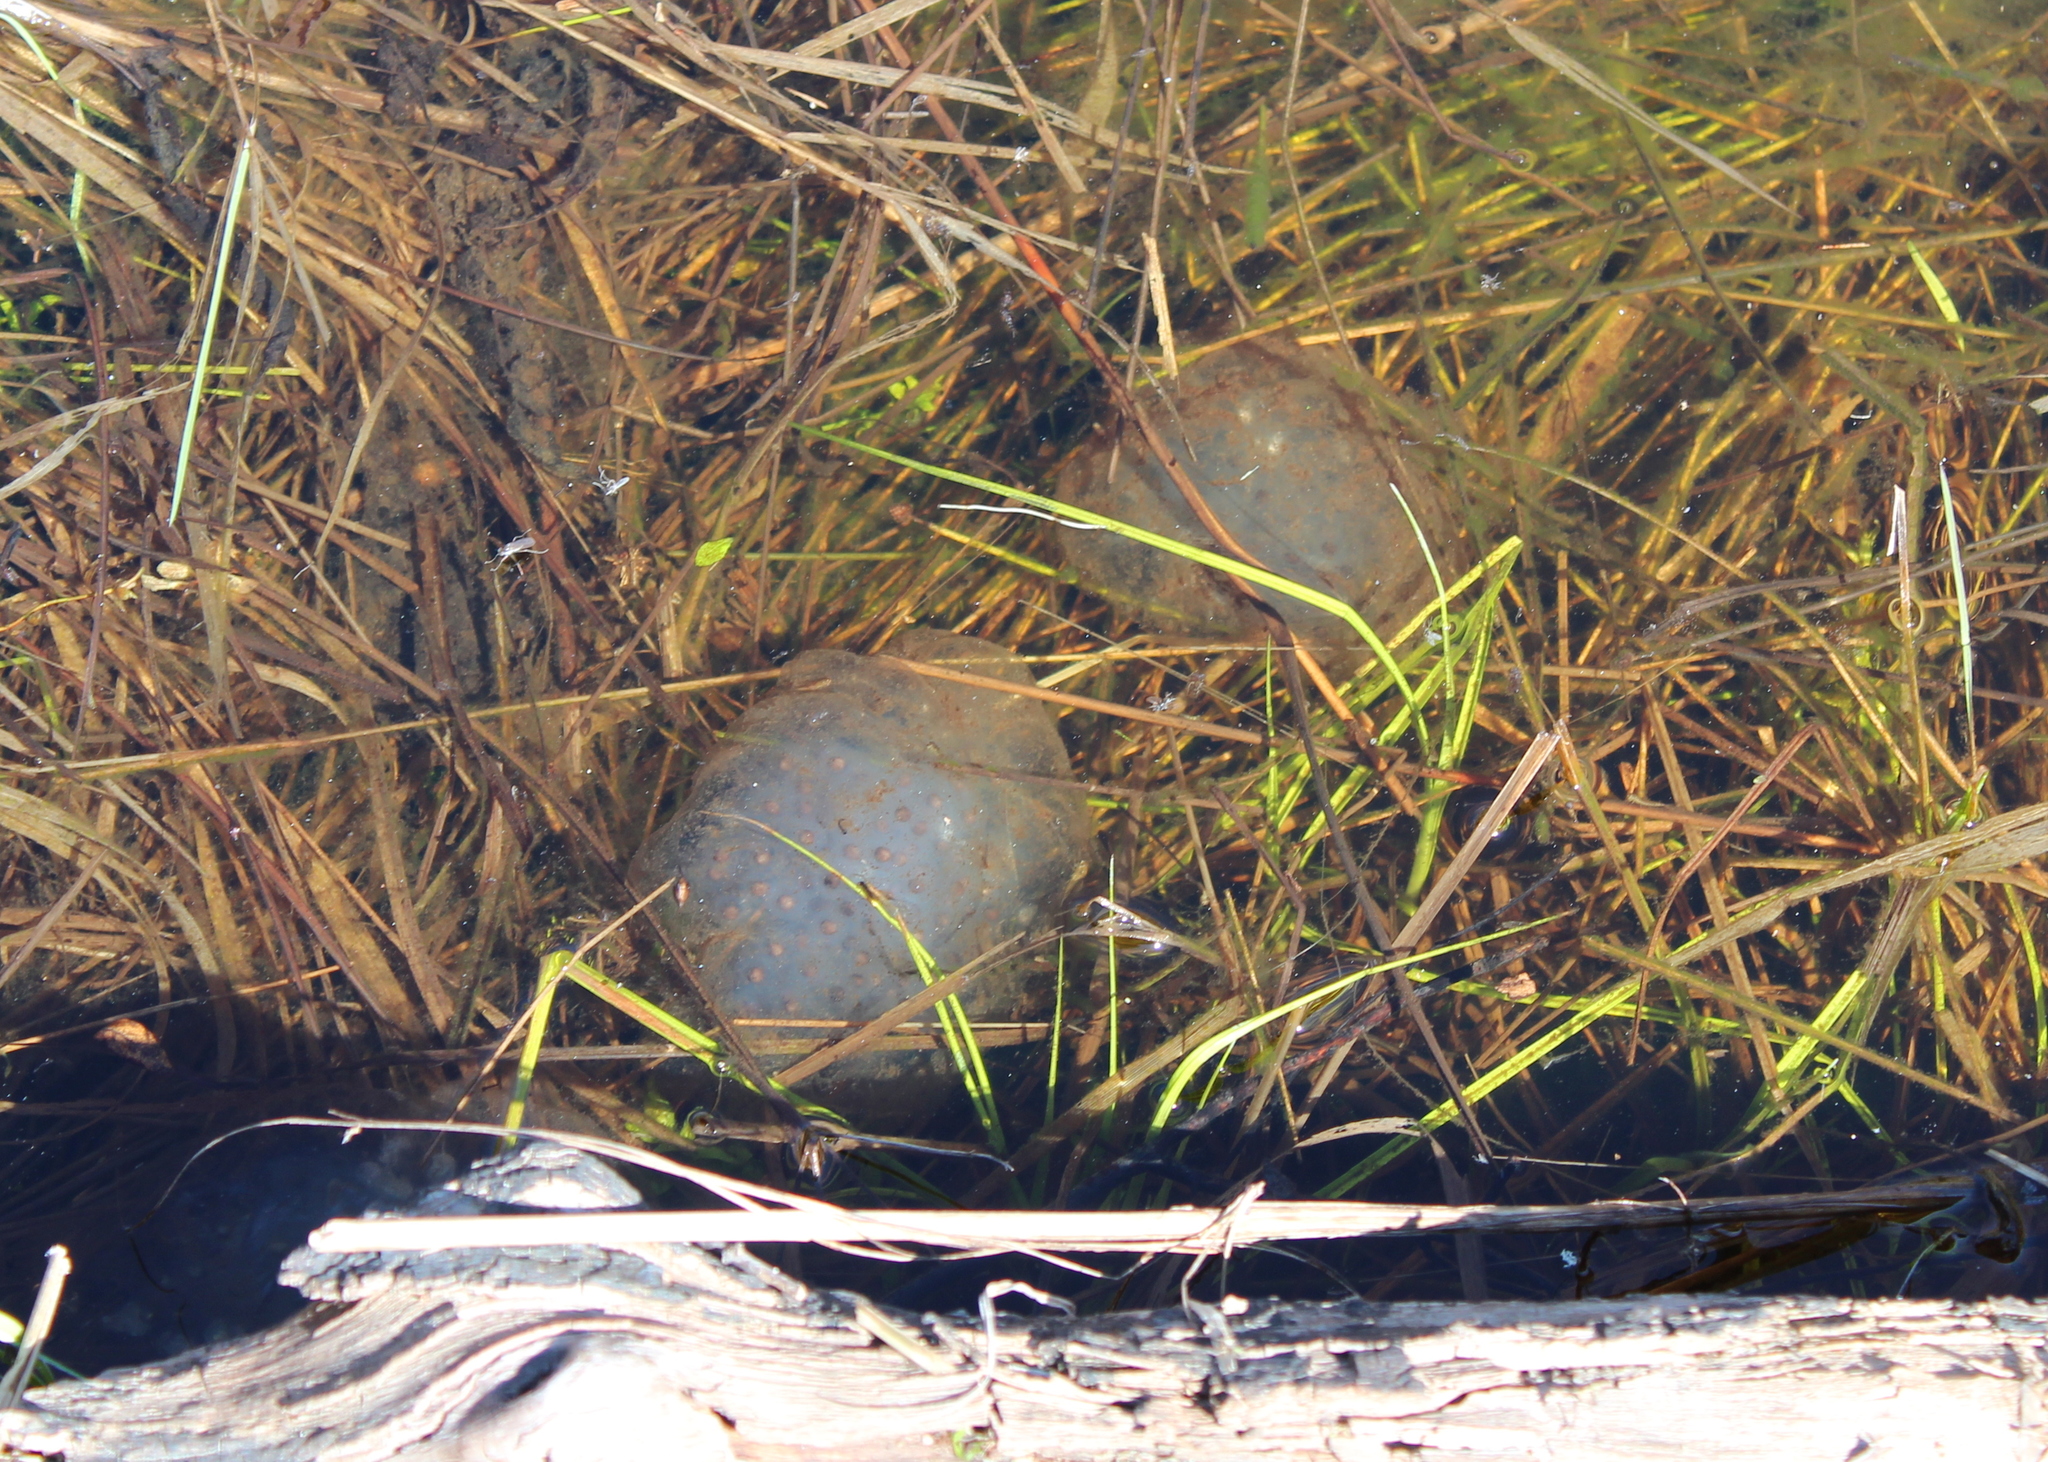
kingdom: Animalia
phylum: Chordata
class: Amphibia
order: Caudata
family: Ambystomatidae
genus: Ambystoma
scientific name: Ambystoma maculatum
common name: Spotted salamander
